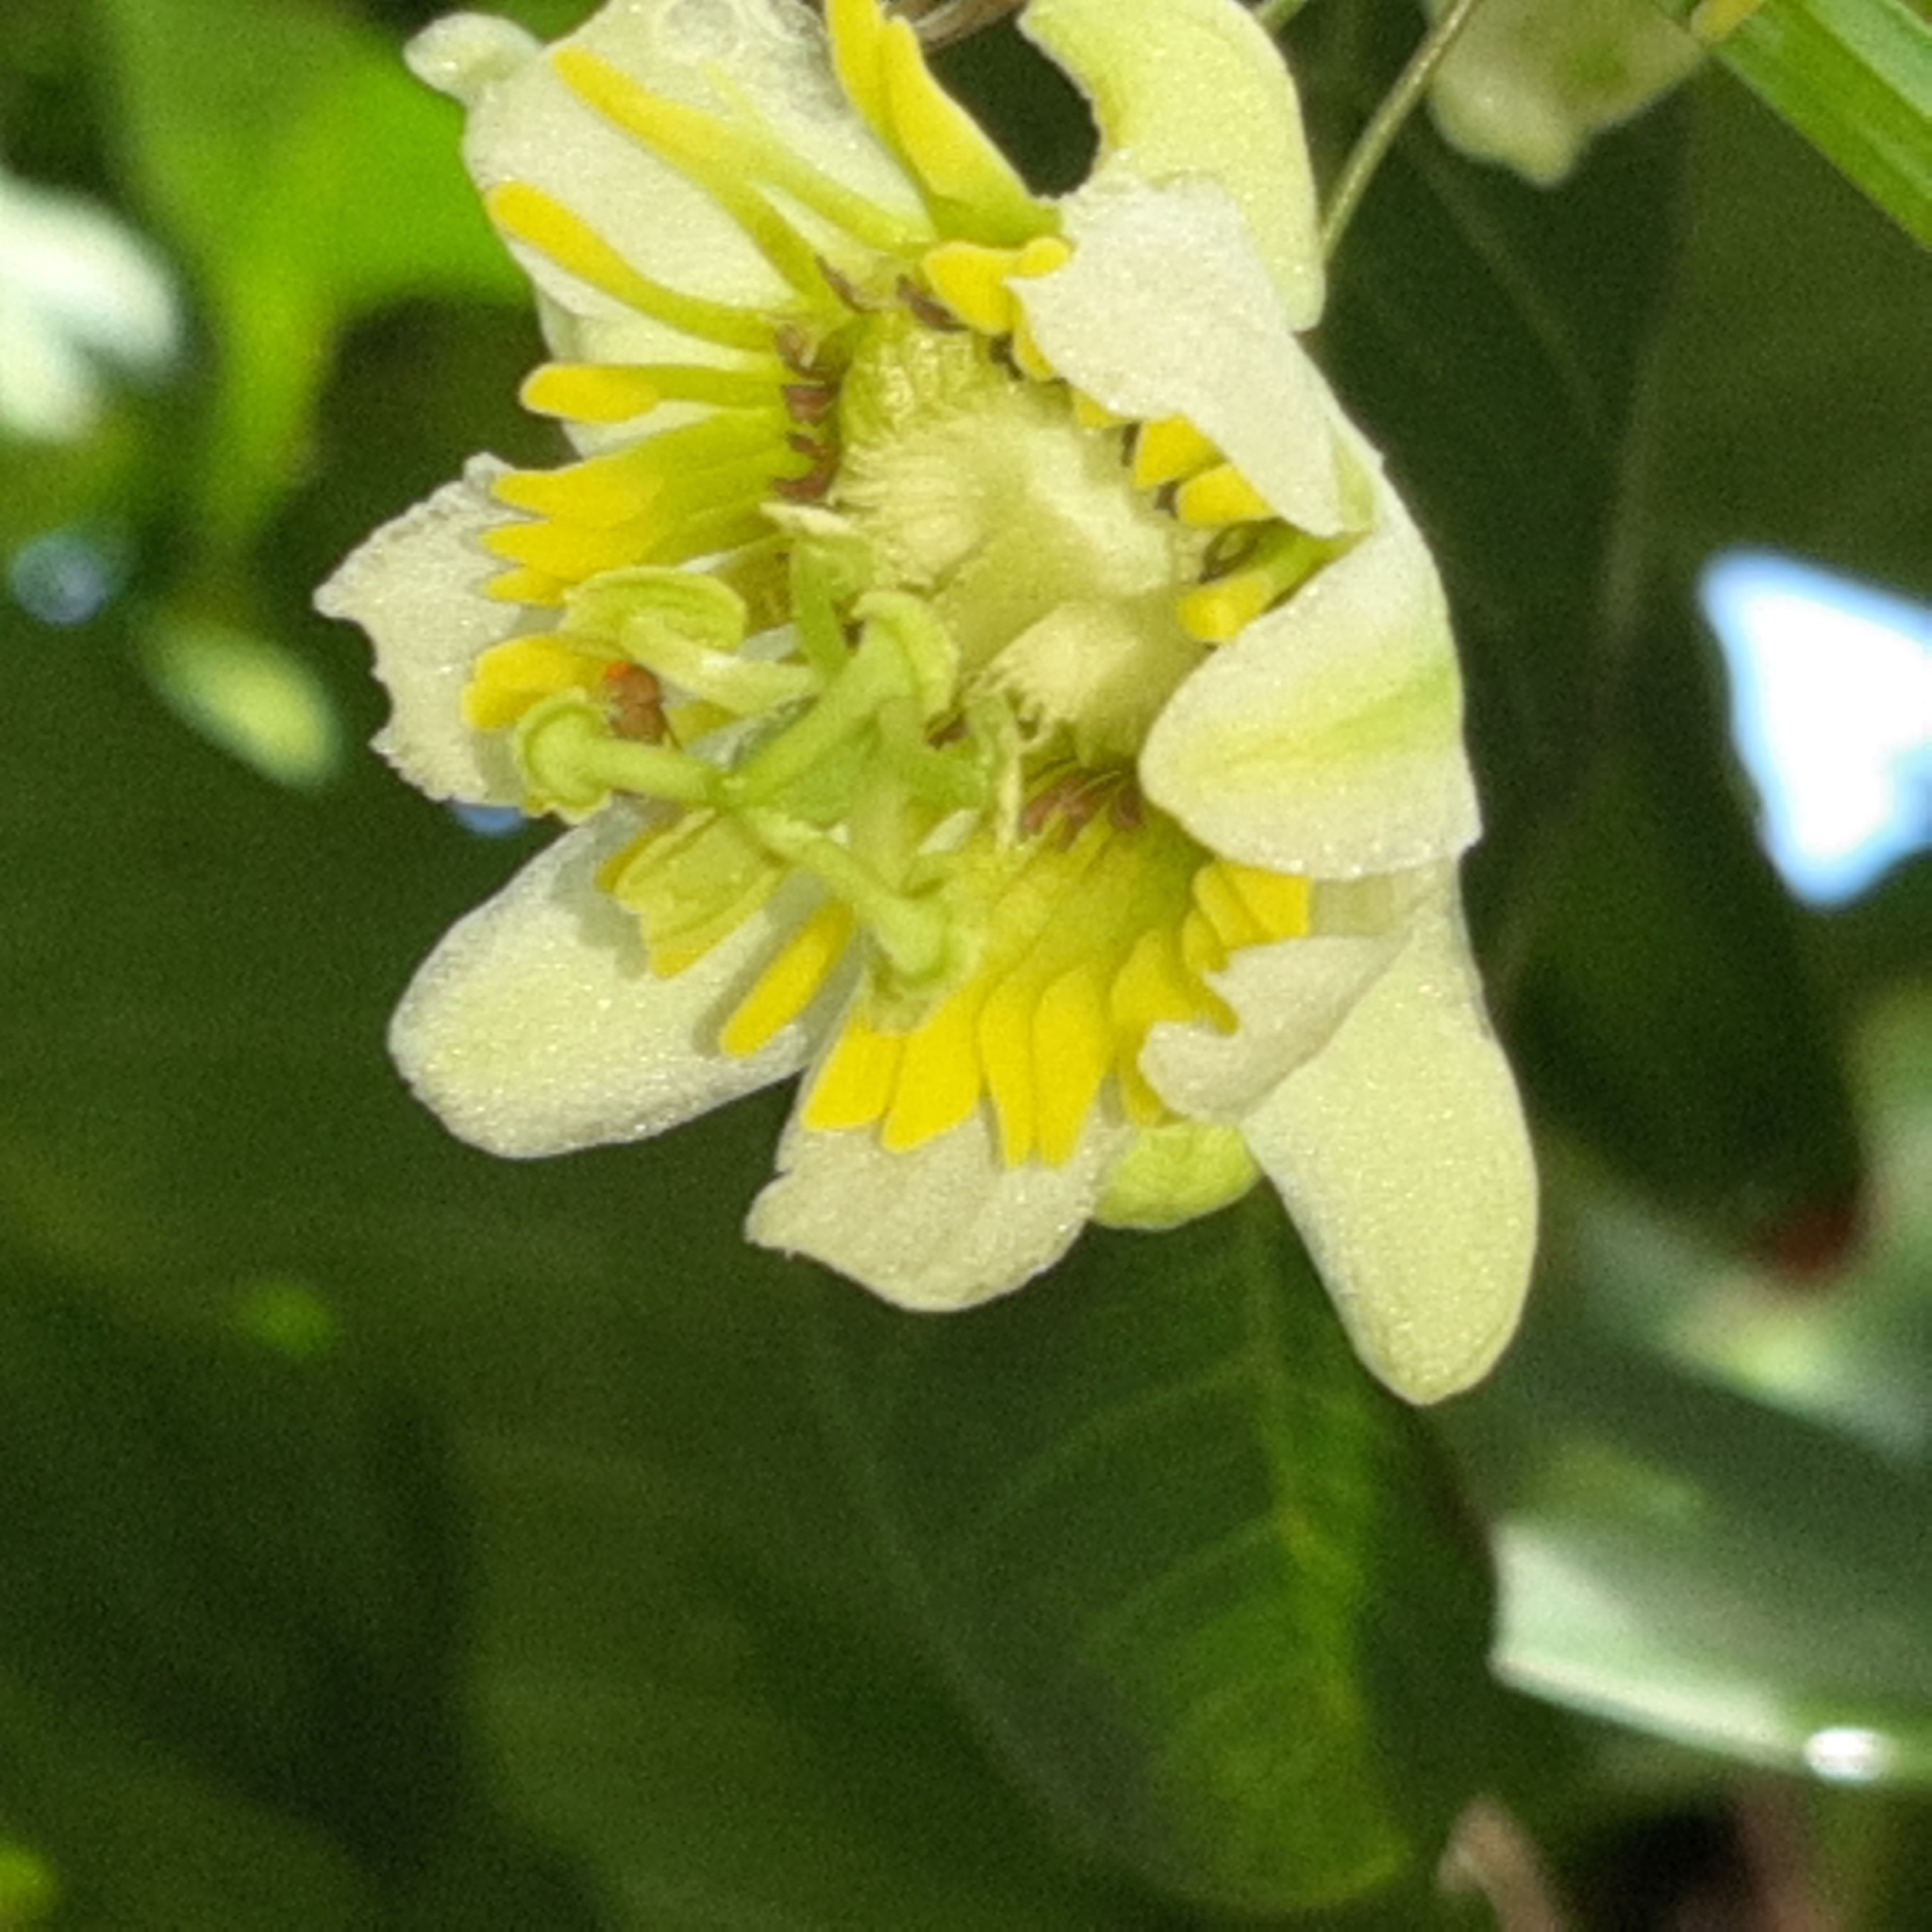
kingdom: Plantae
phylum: Tracheophyta
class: Magnoliopsida
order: Malpighiales
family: Passifloraceae
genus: Passiflora
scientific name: Passiflora biflora
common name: Twoflower passionflower
